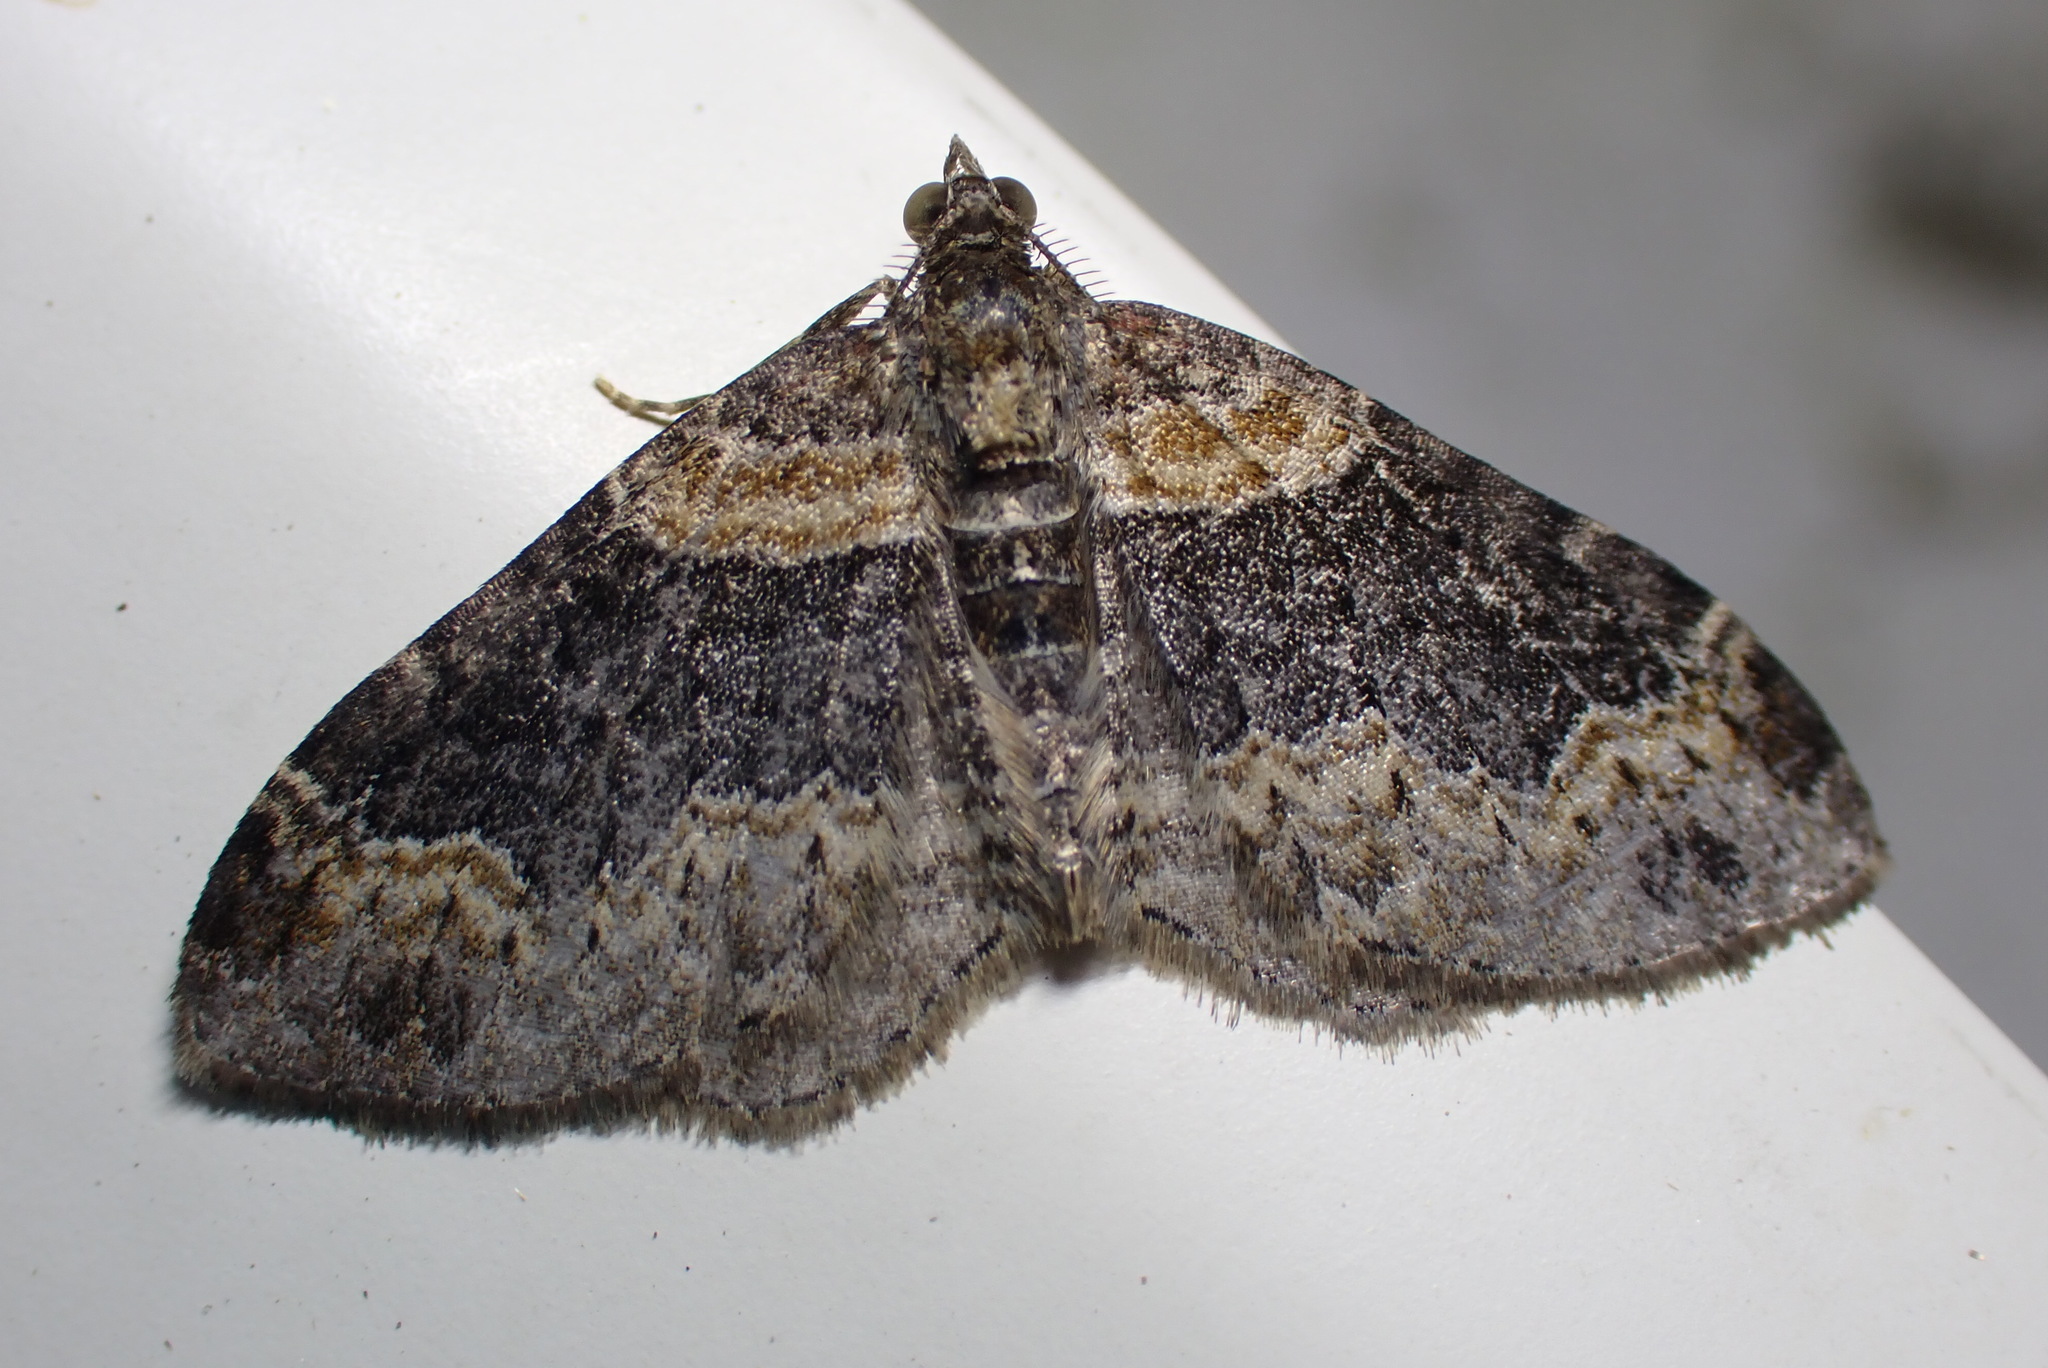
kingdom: Animalia
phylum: Arthropoda
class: Insecta
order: Lepidoptera
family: Geometridae
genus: Xanthorhoe
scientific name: Xanthorhoe ferrugata
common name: Dark-barred twin-spot carpet
